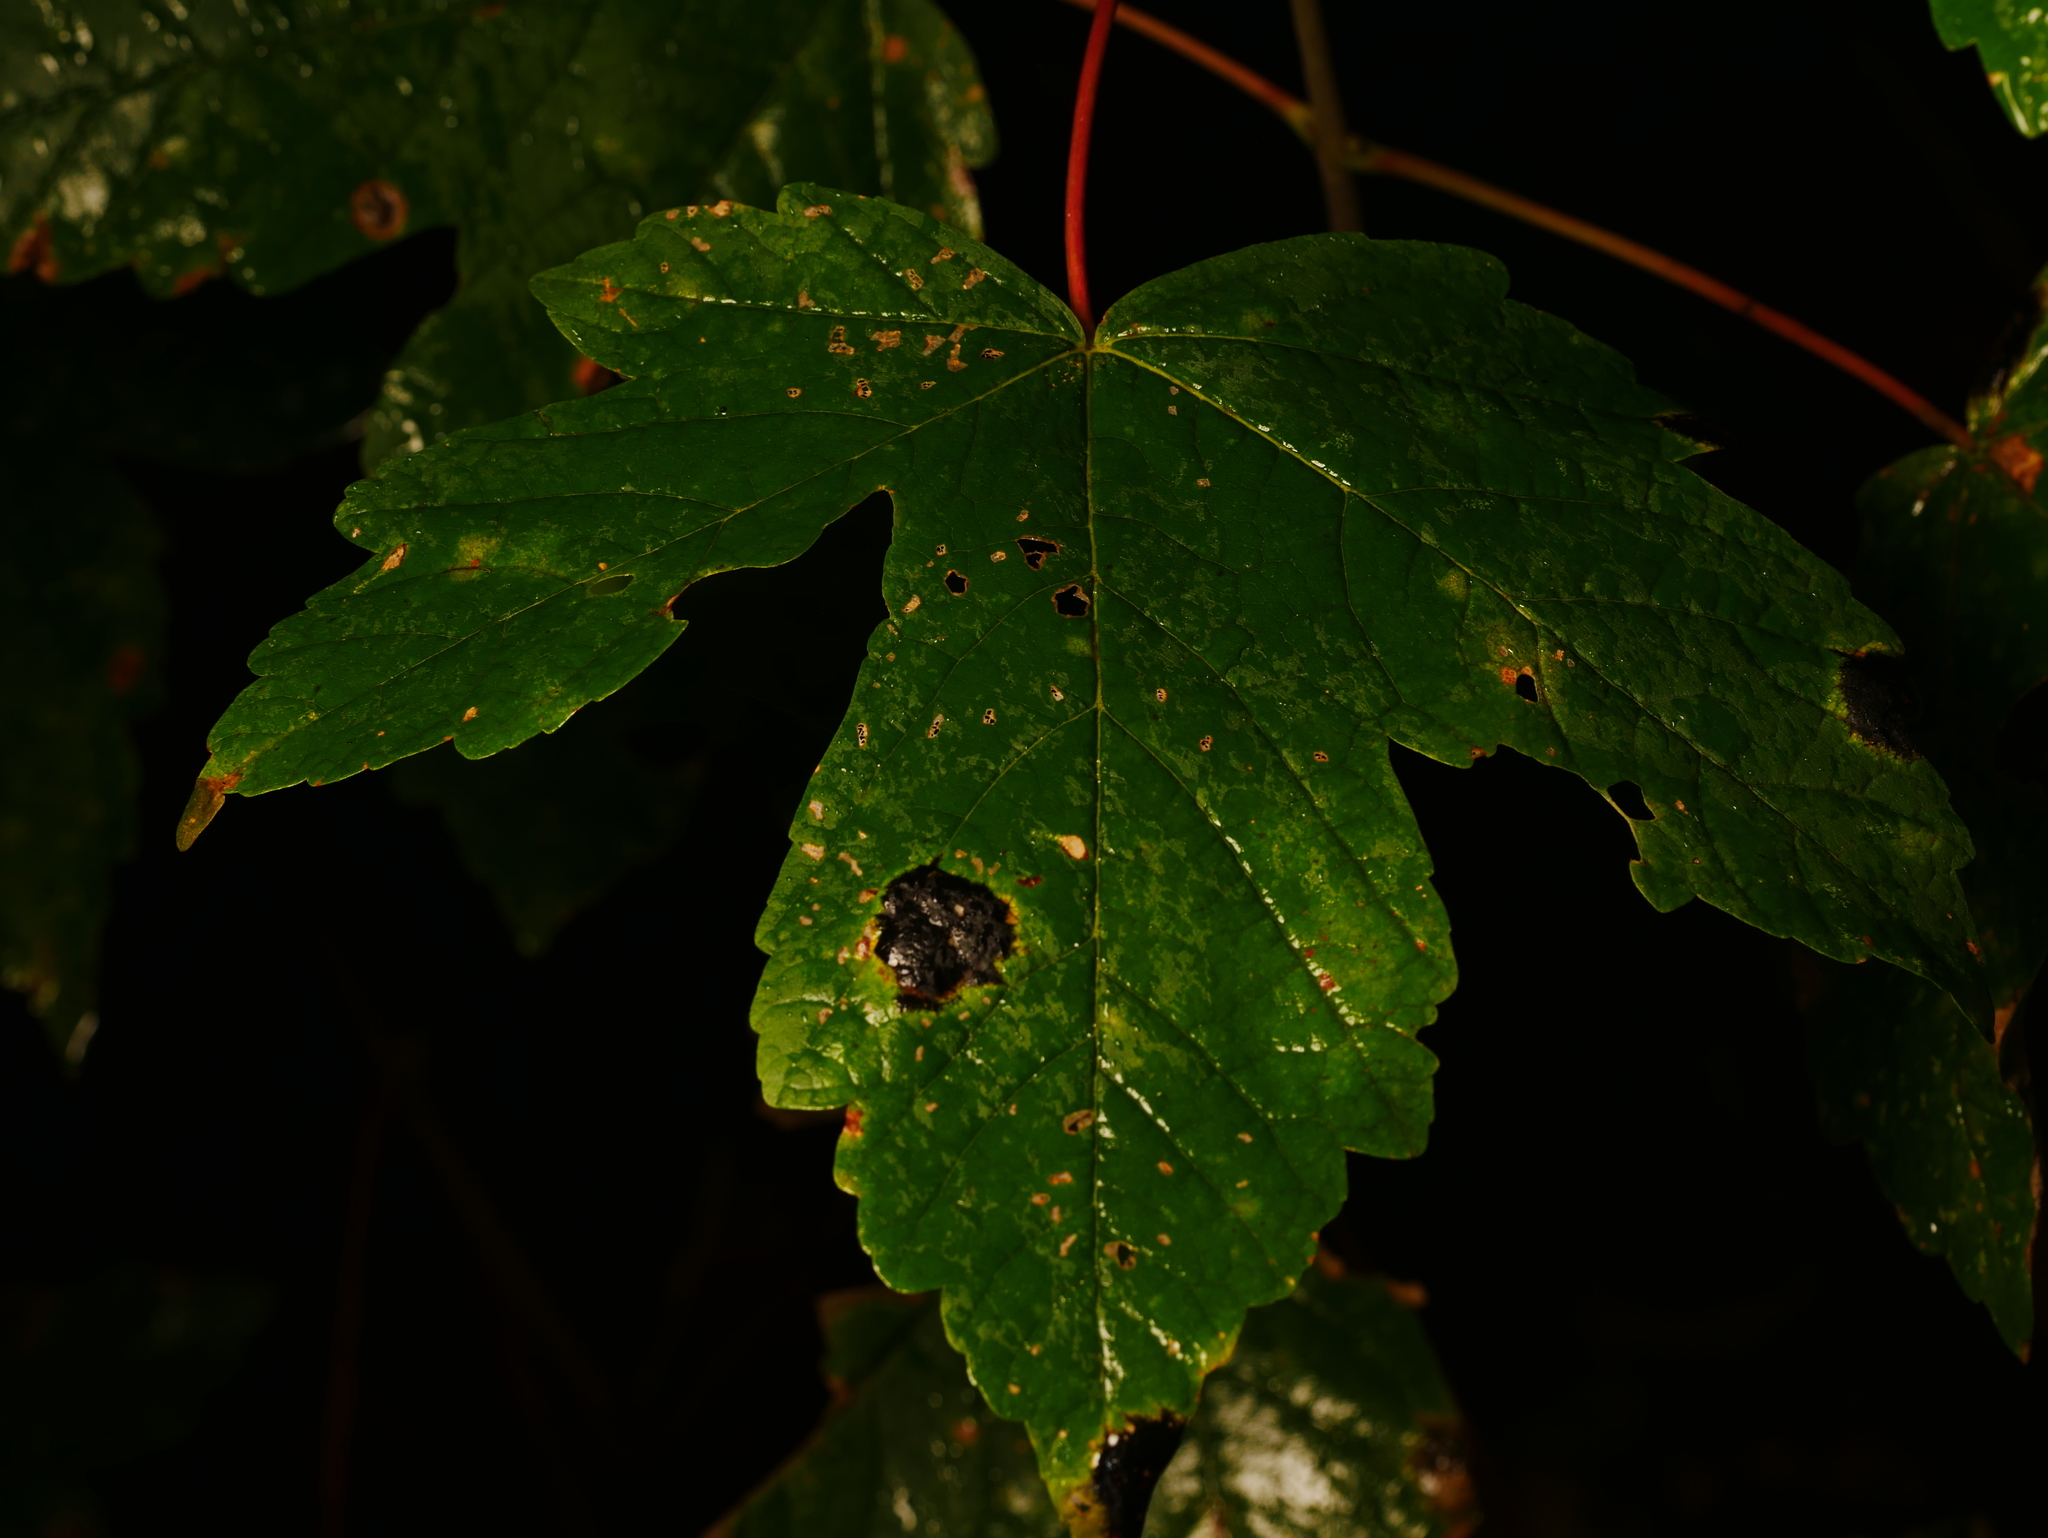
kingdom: Plantae
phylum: Tracheophyta
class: Magnoliopsida
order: Sapindales
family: Sapindaceae
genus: Acer
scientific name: Acer platanoides
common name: Norway maple
